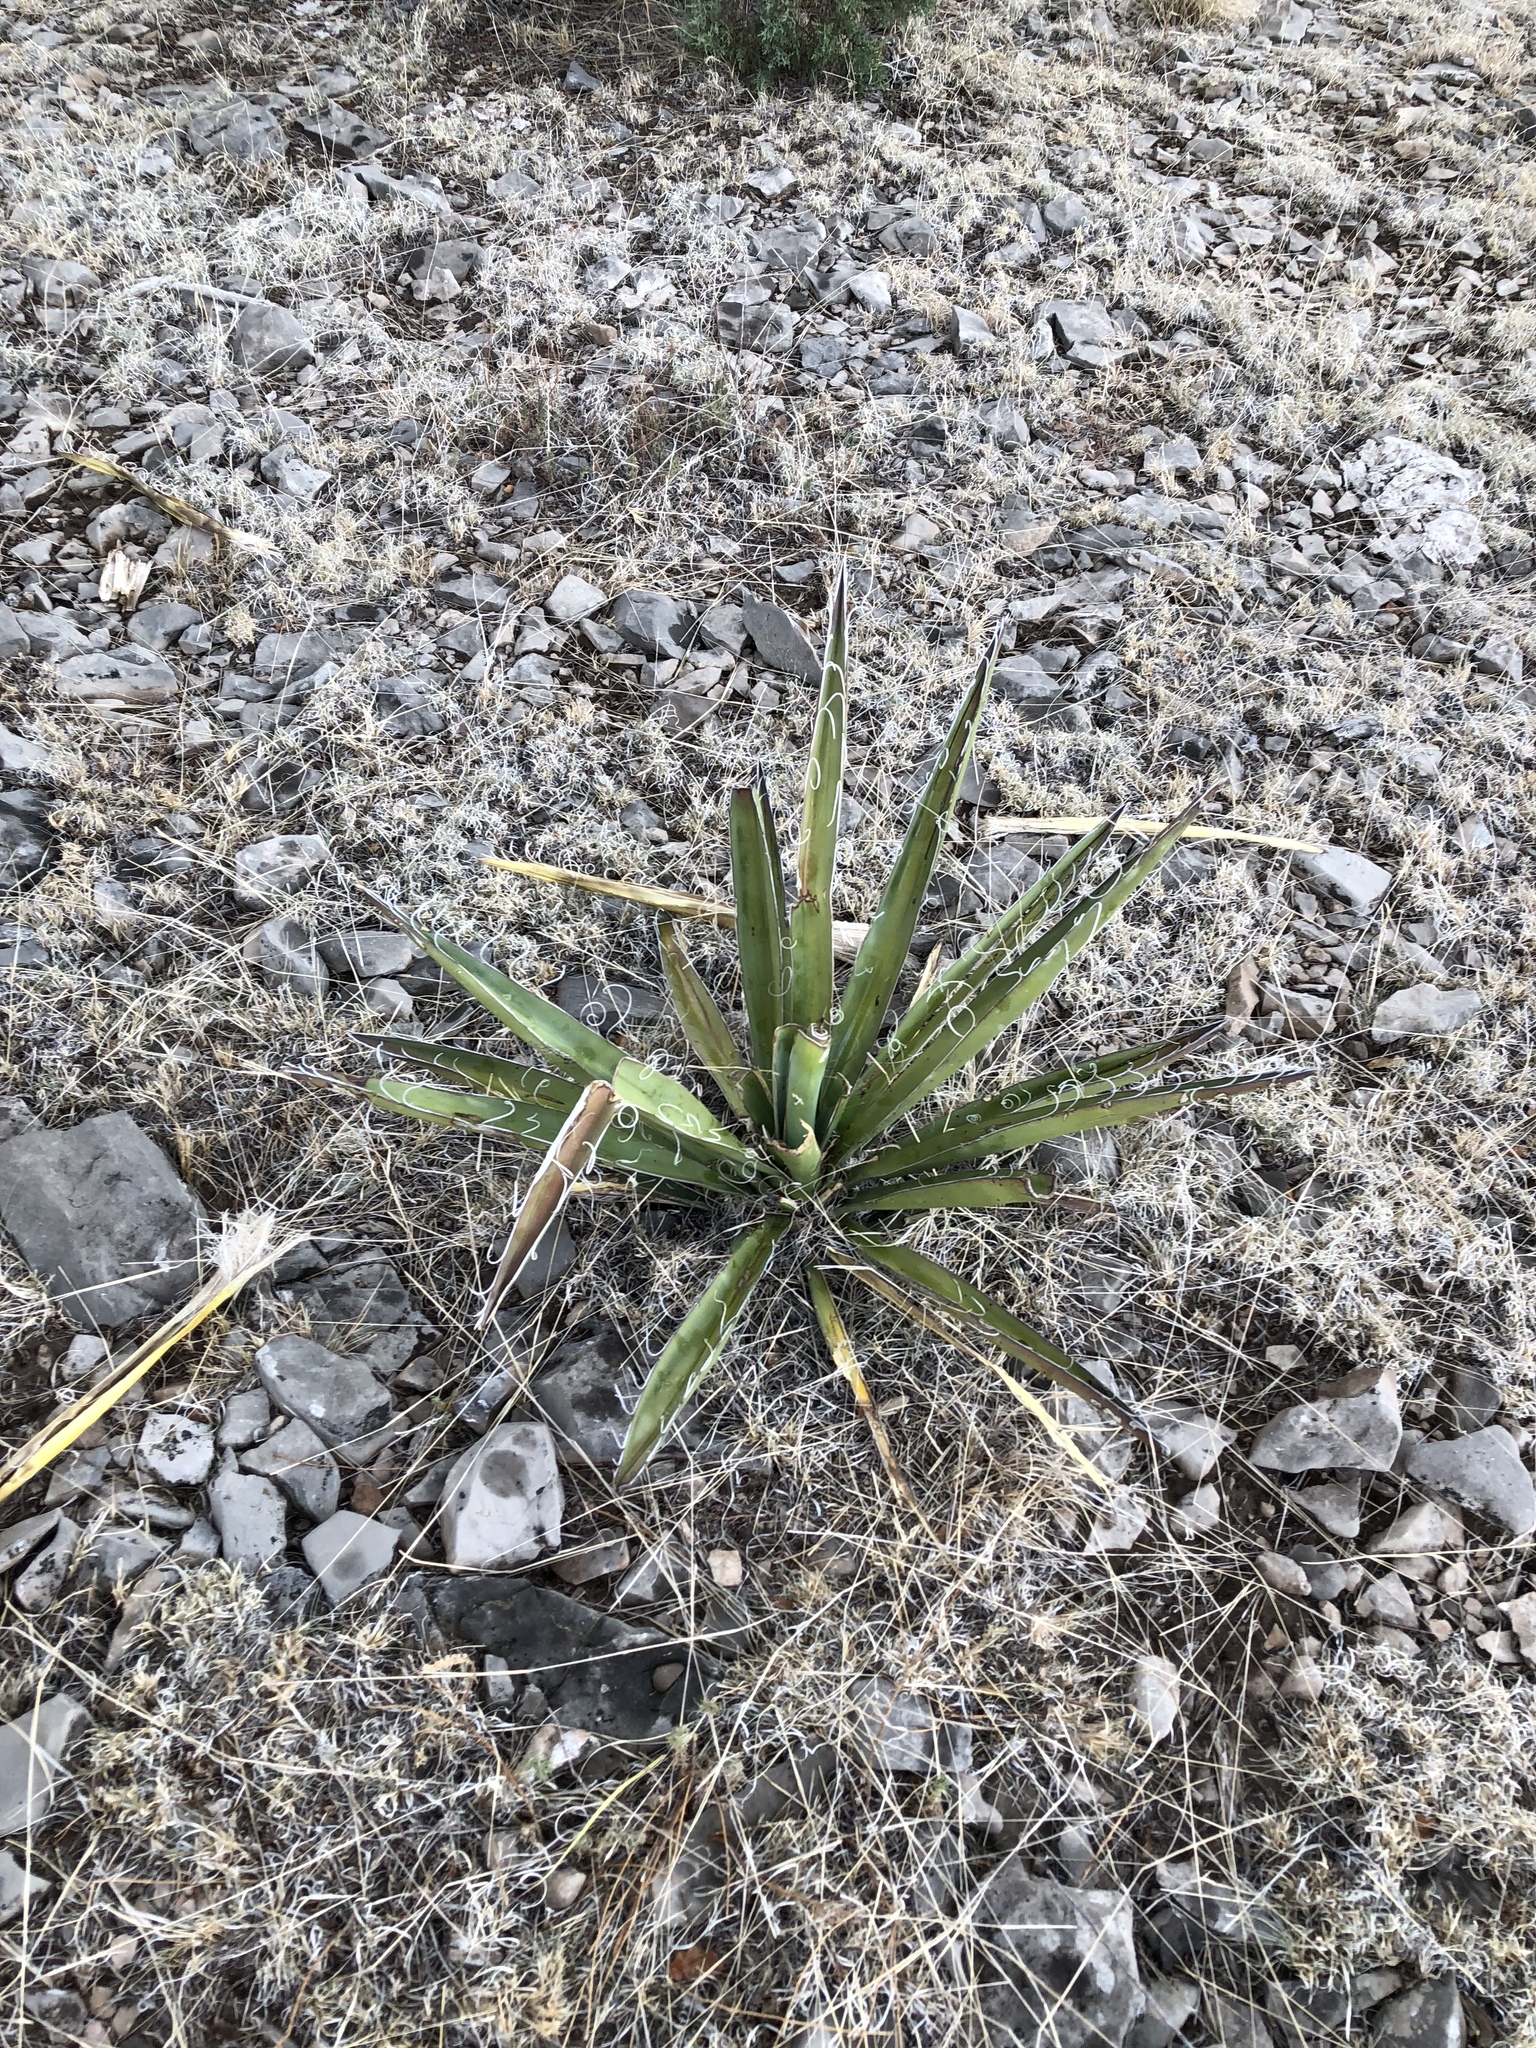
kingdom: Plantae
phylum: Tracheophyta
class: Liliopsida
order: Asparagales
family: Asparagaceae
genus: Yucca
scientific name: Yucca baccata
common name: Banana yucca
